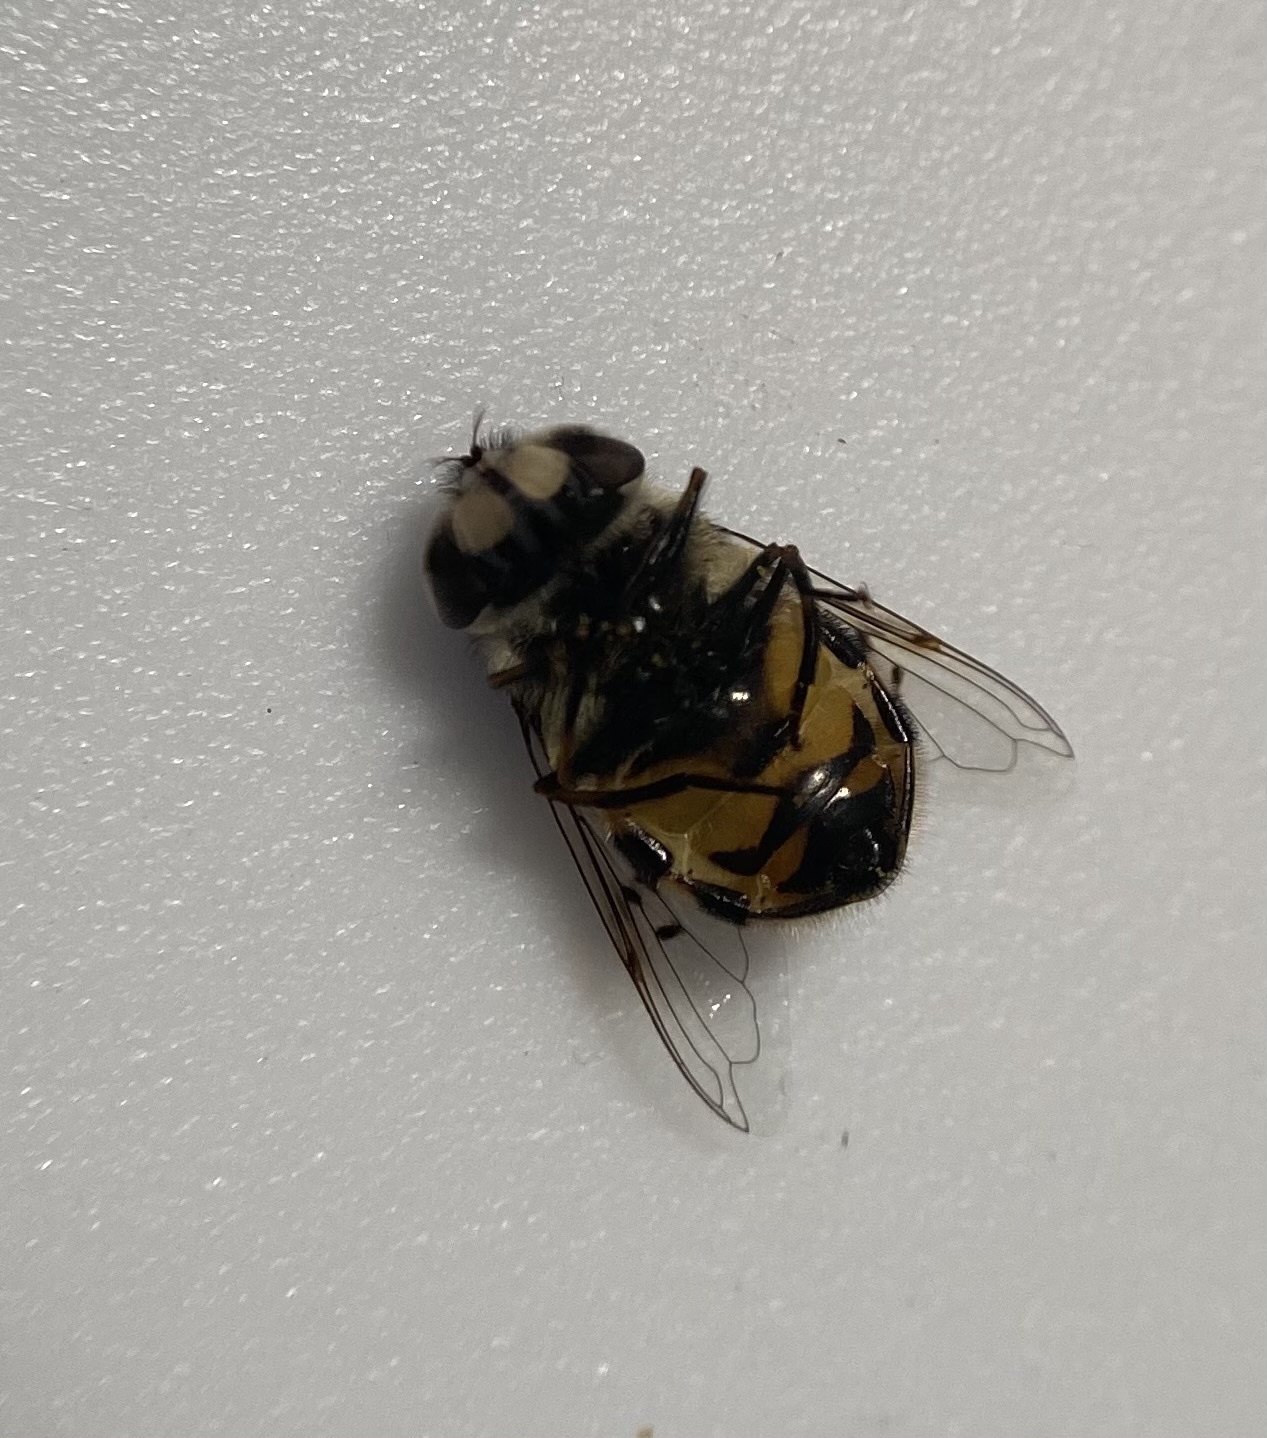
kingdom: Animalia
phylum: Arthropoda
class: Insecta
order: Diptera
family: Syrphidae
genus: Copestylum
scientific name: Copestylum avidum
